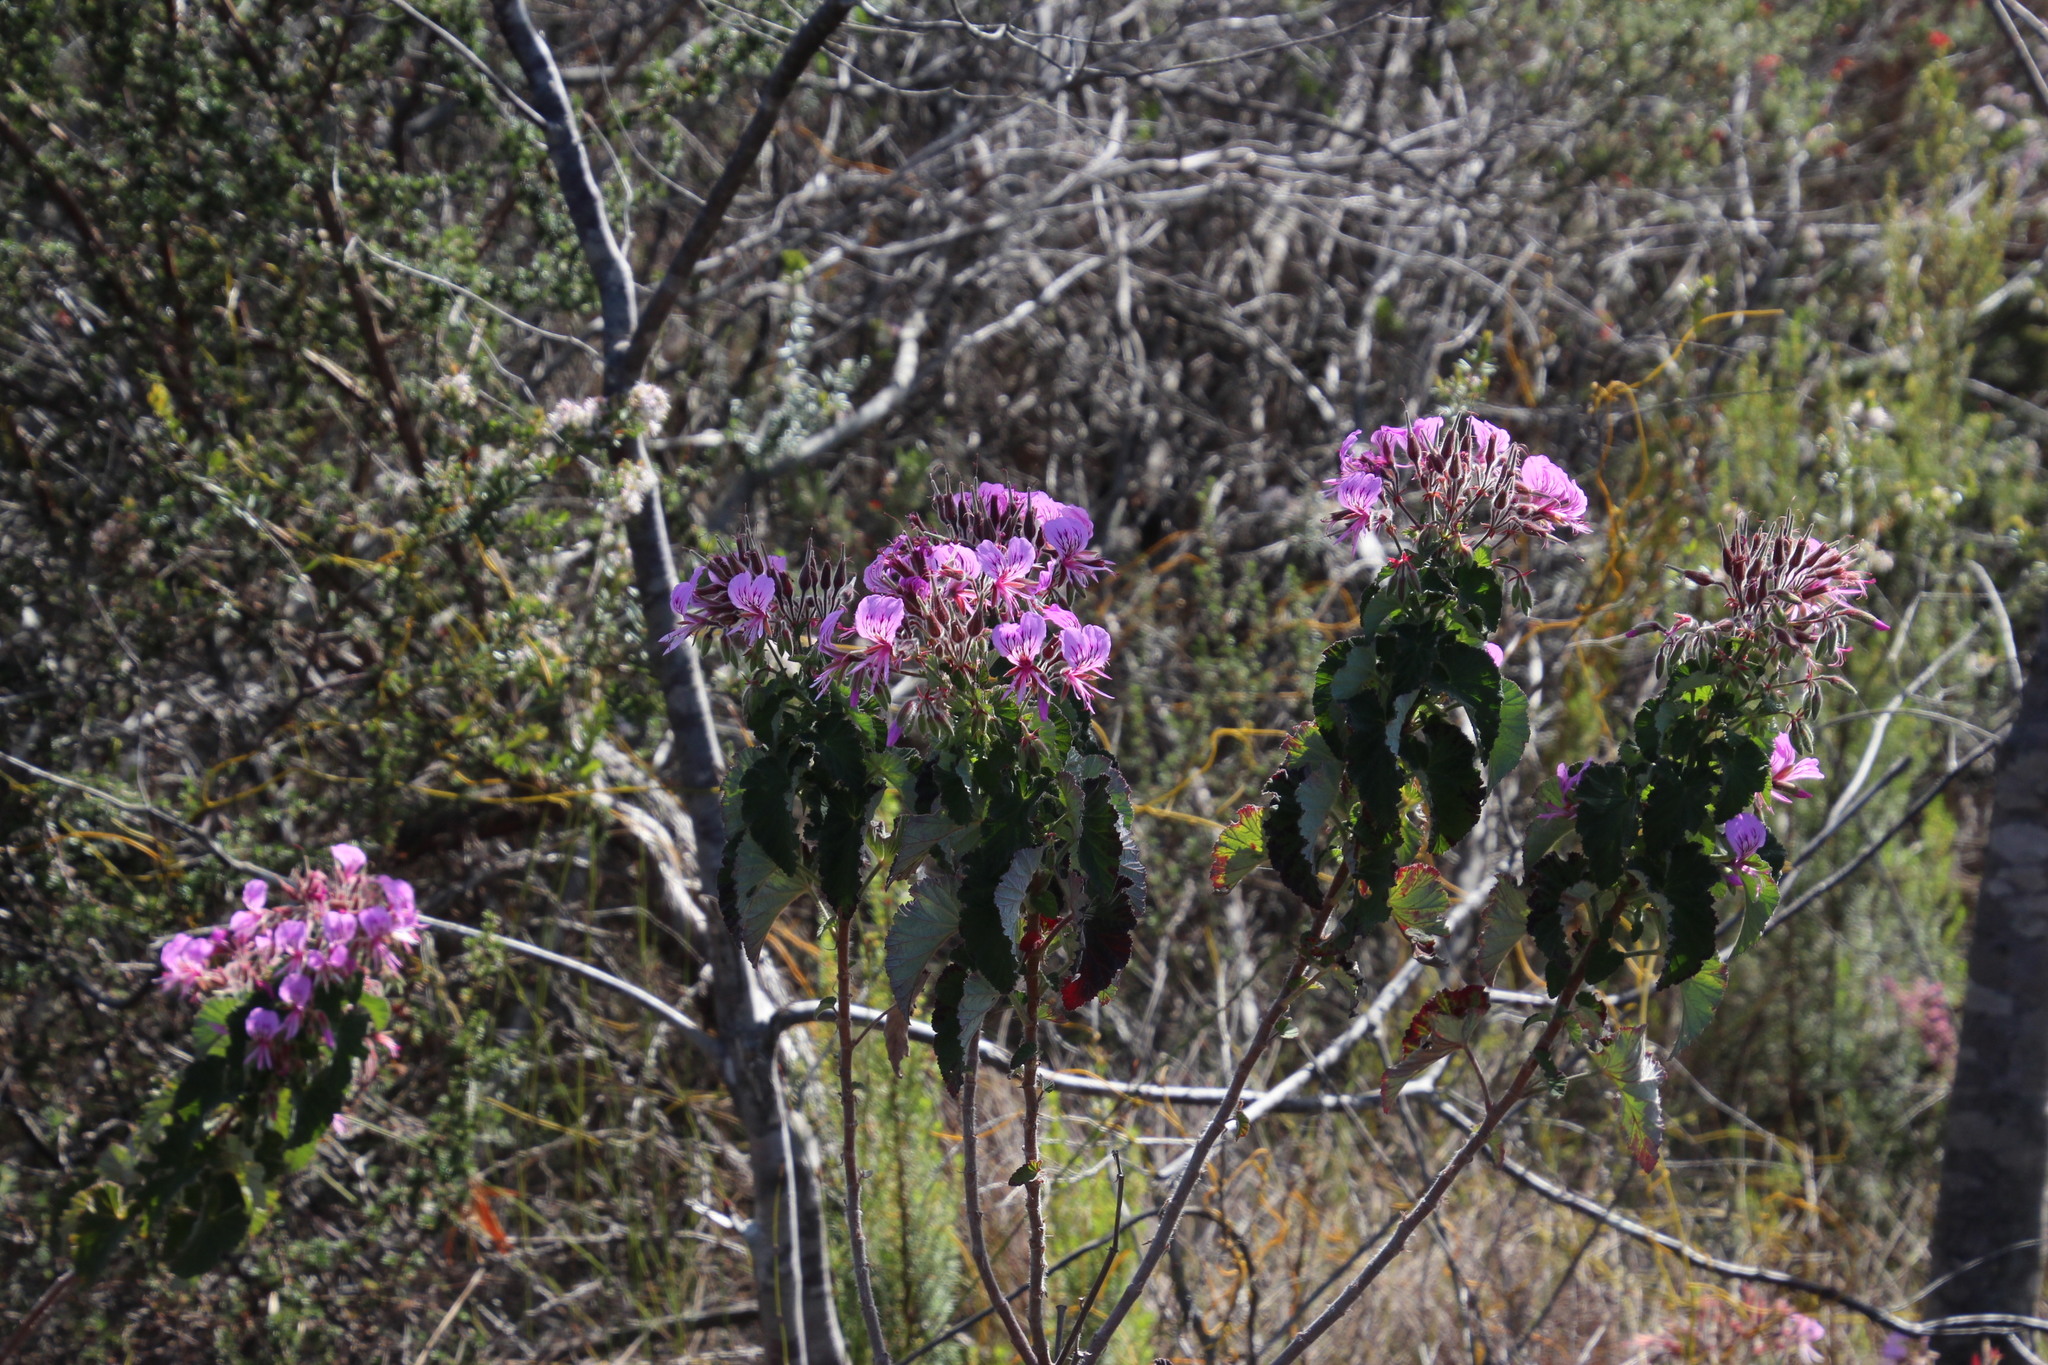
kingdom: Plantae
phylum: Tracheophyta
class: Magnoliopsida
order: Geraniales
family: Geraniaceae
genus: Pelargonium
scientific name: Pelargonium cordifolium
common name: Heart-leaf pelargonium
